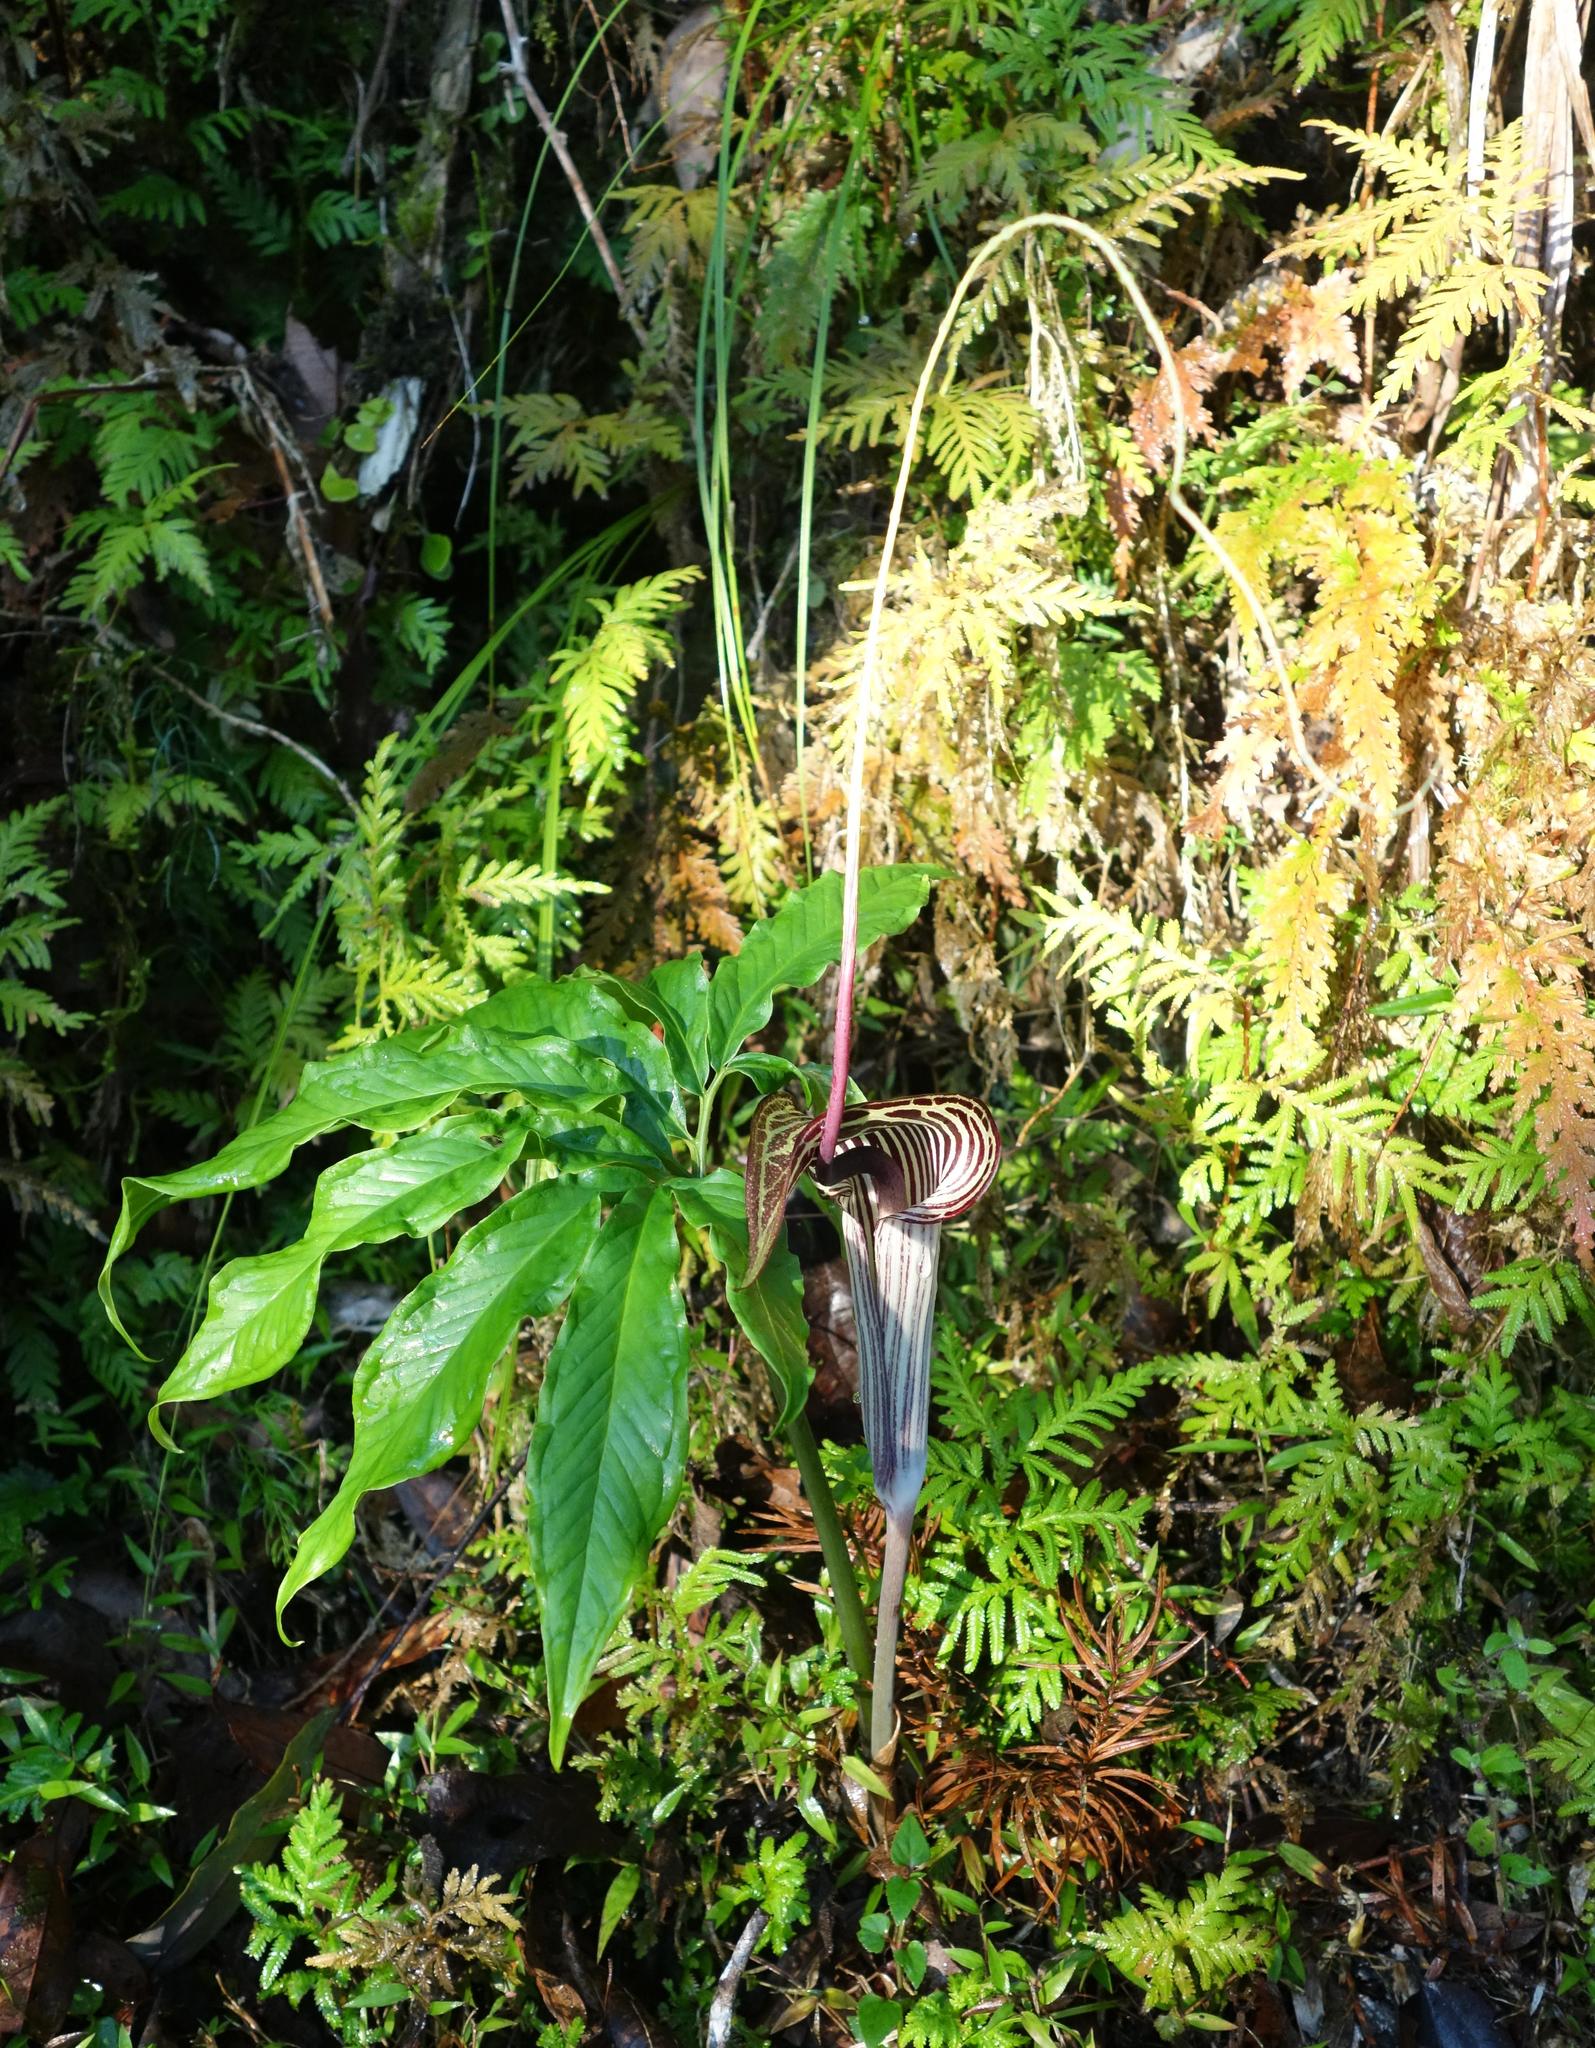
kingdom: Plantae
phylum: Tracheophyta
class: Liliopsida
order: Alismatales
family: Araceae
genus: Arisaema
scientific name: Arisaema thunbergii
